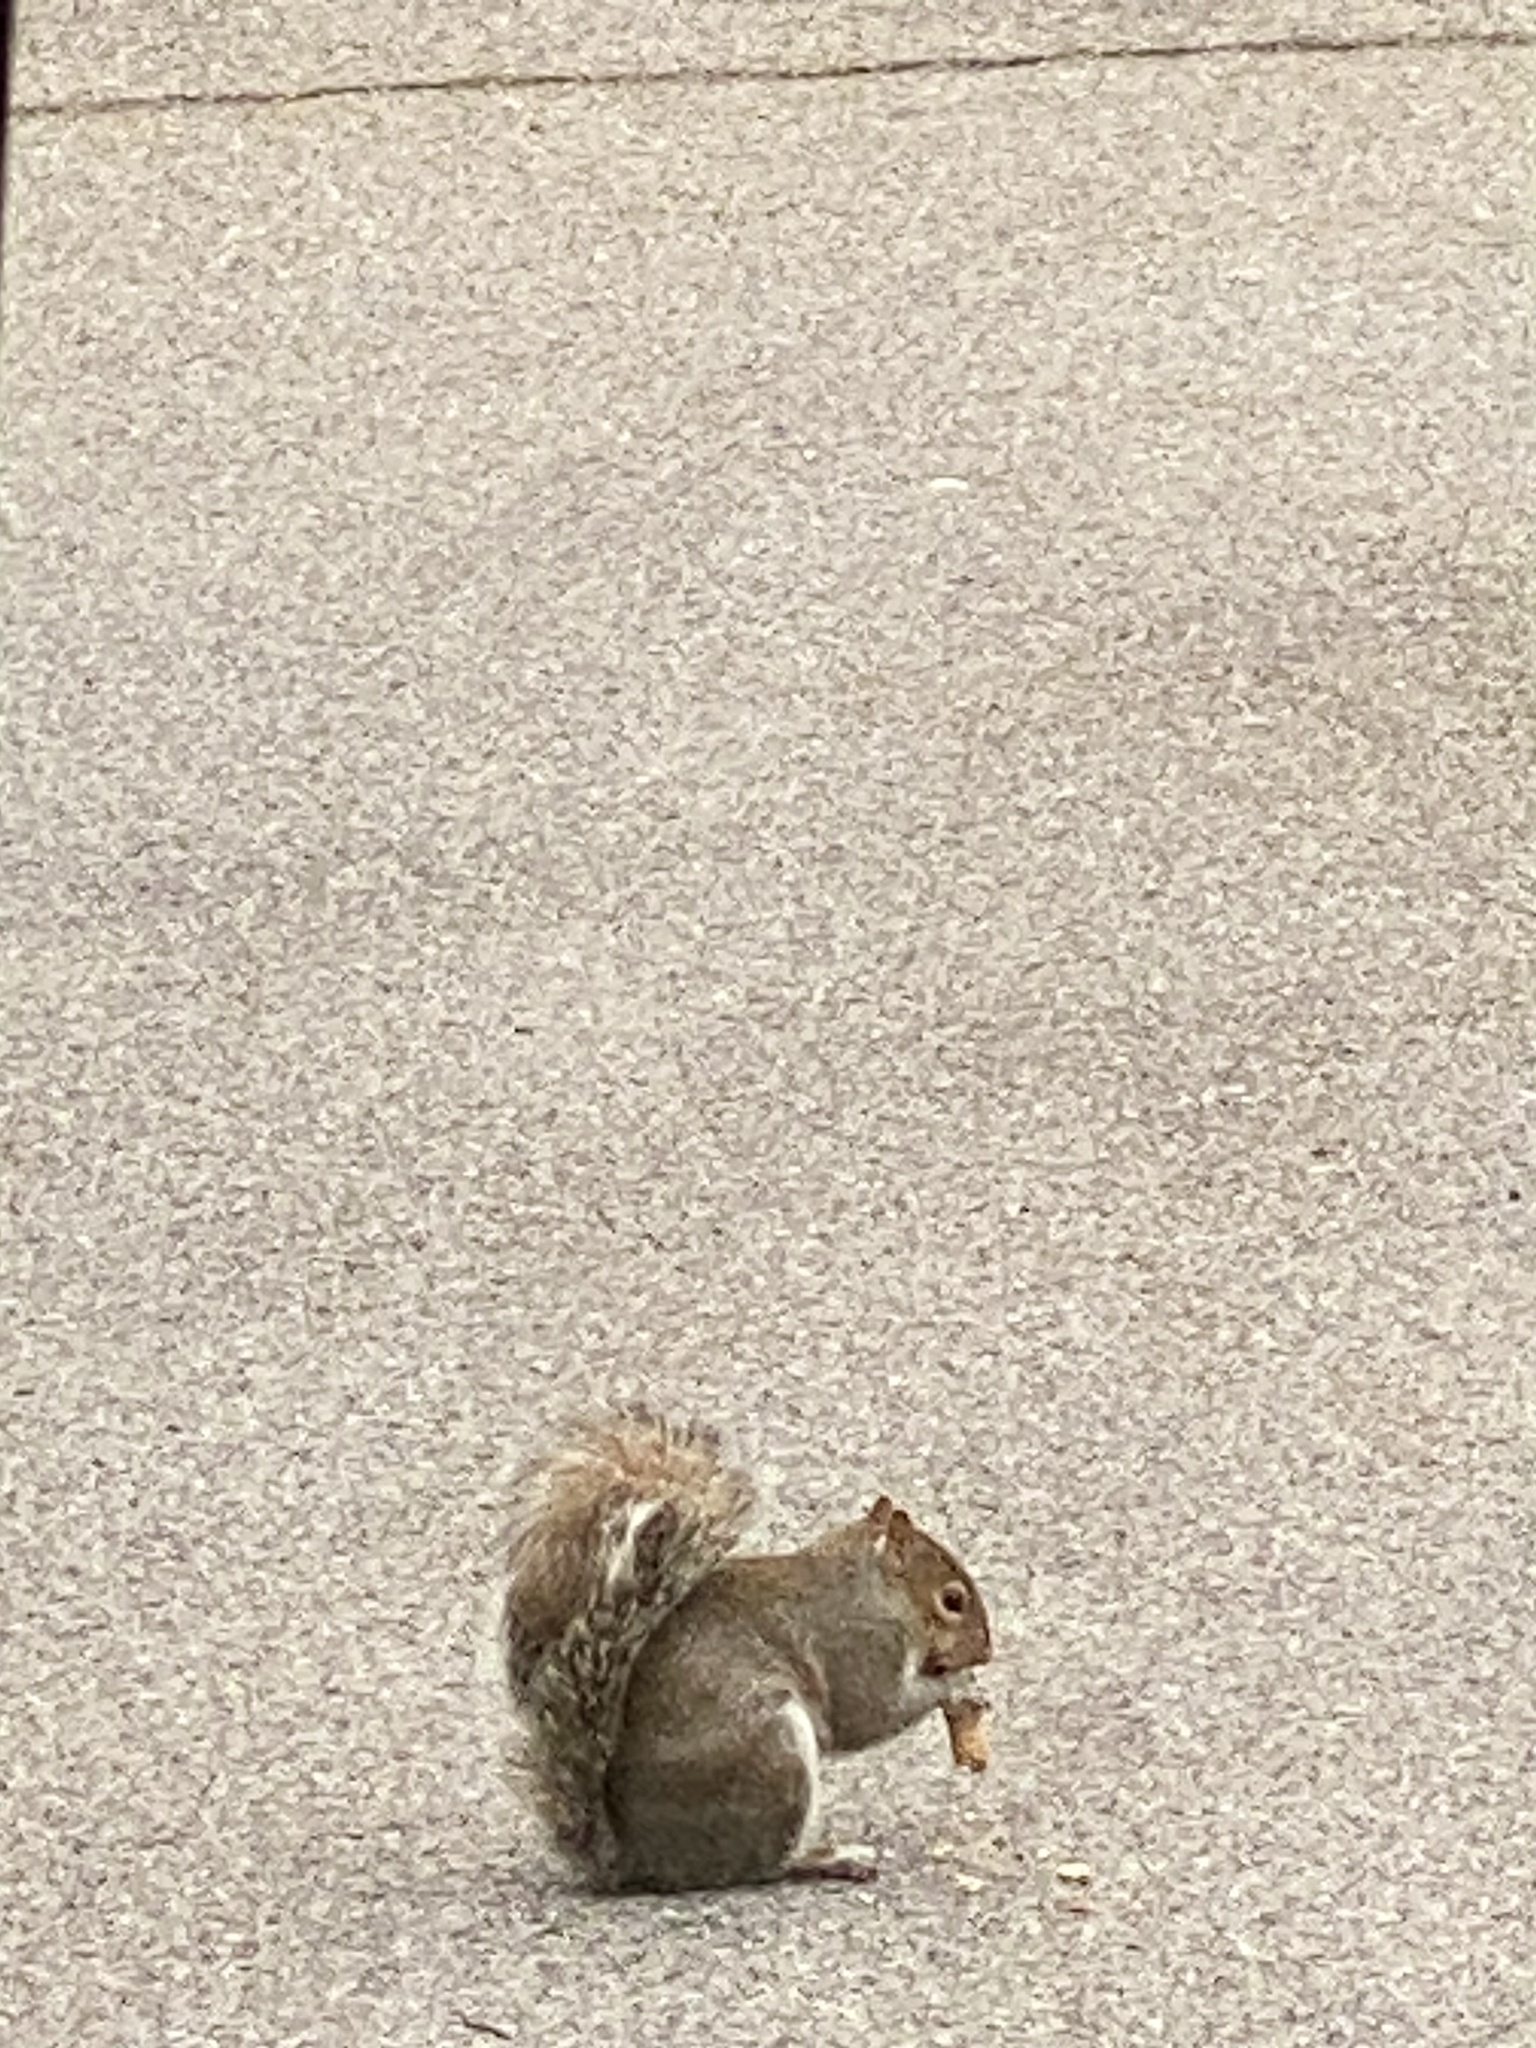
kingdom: Animalia
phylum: Chordata
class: Mammalia
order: Rodentia
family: Sciuridae
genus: Sciurus
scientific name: Sciurus carolinensis
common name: Eastern gray squirrel
